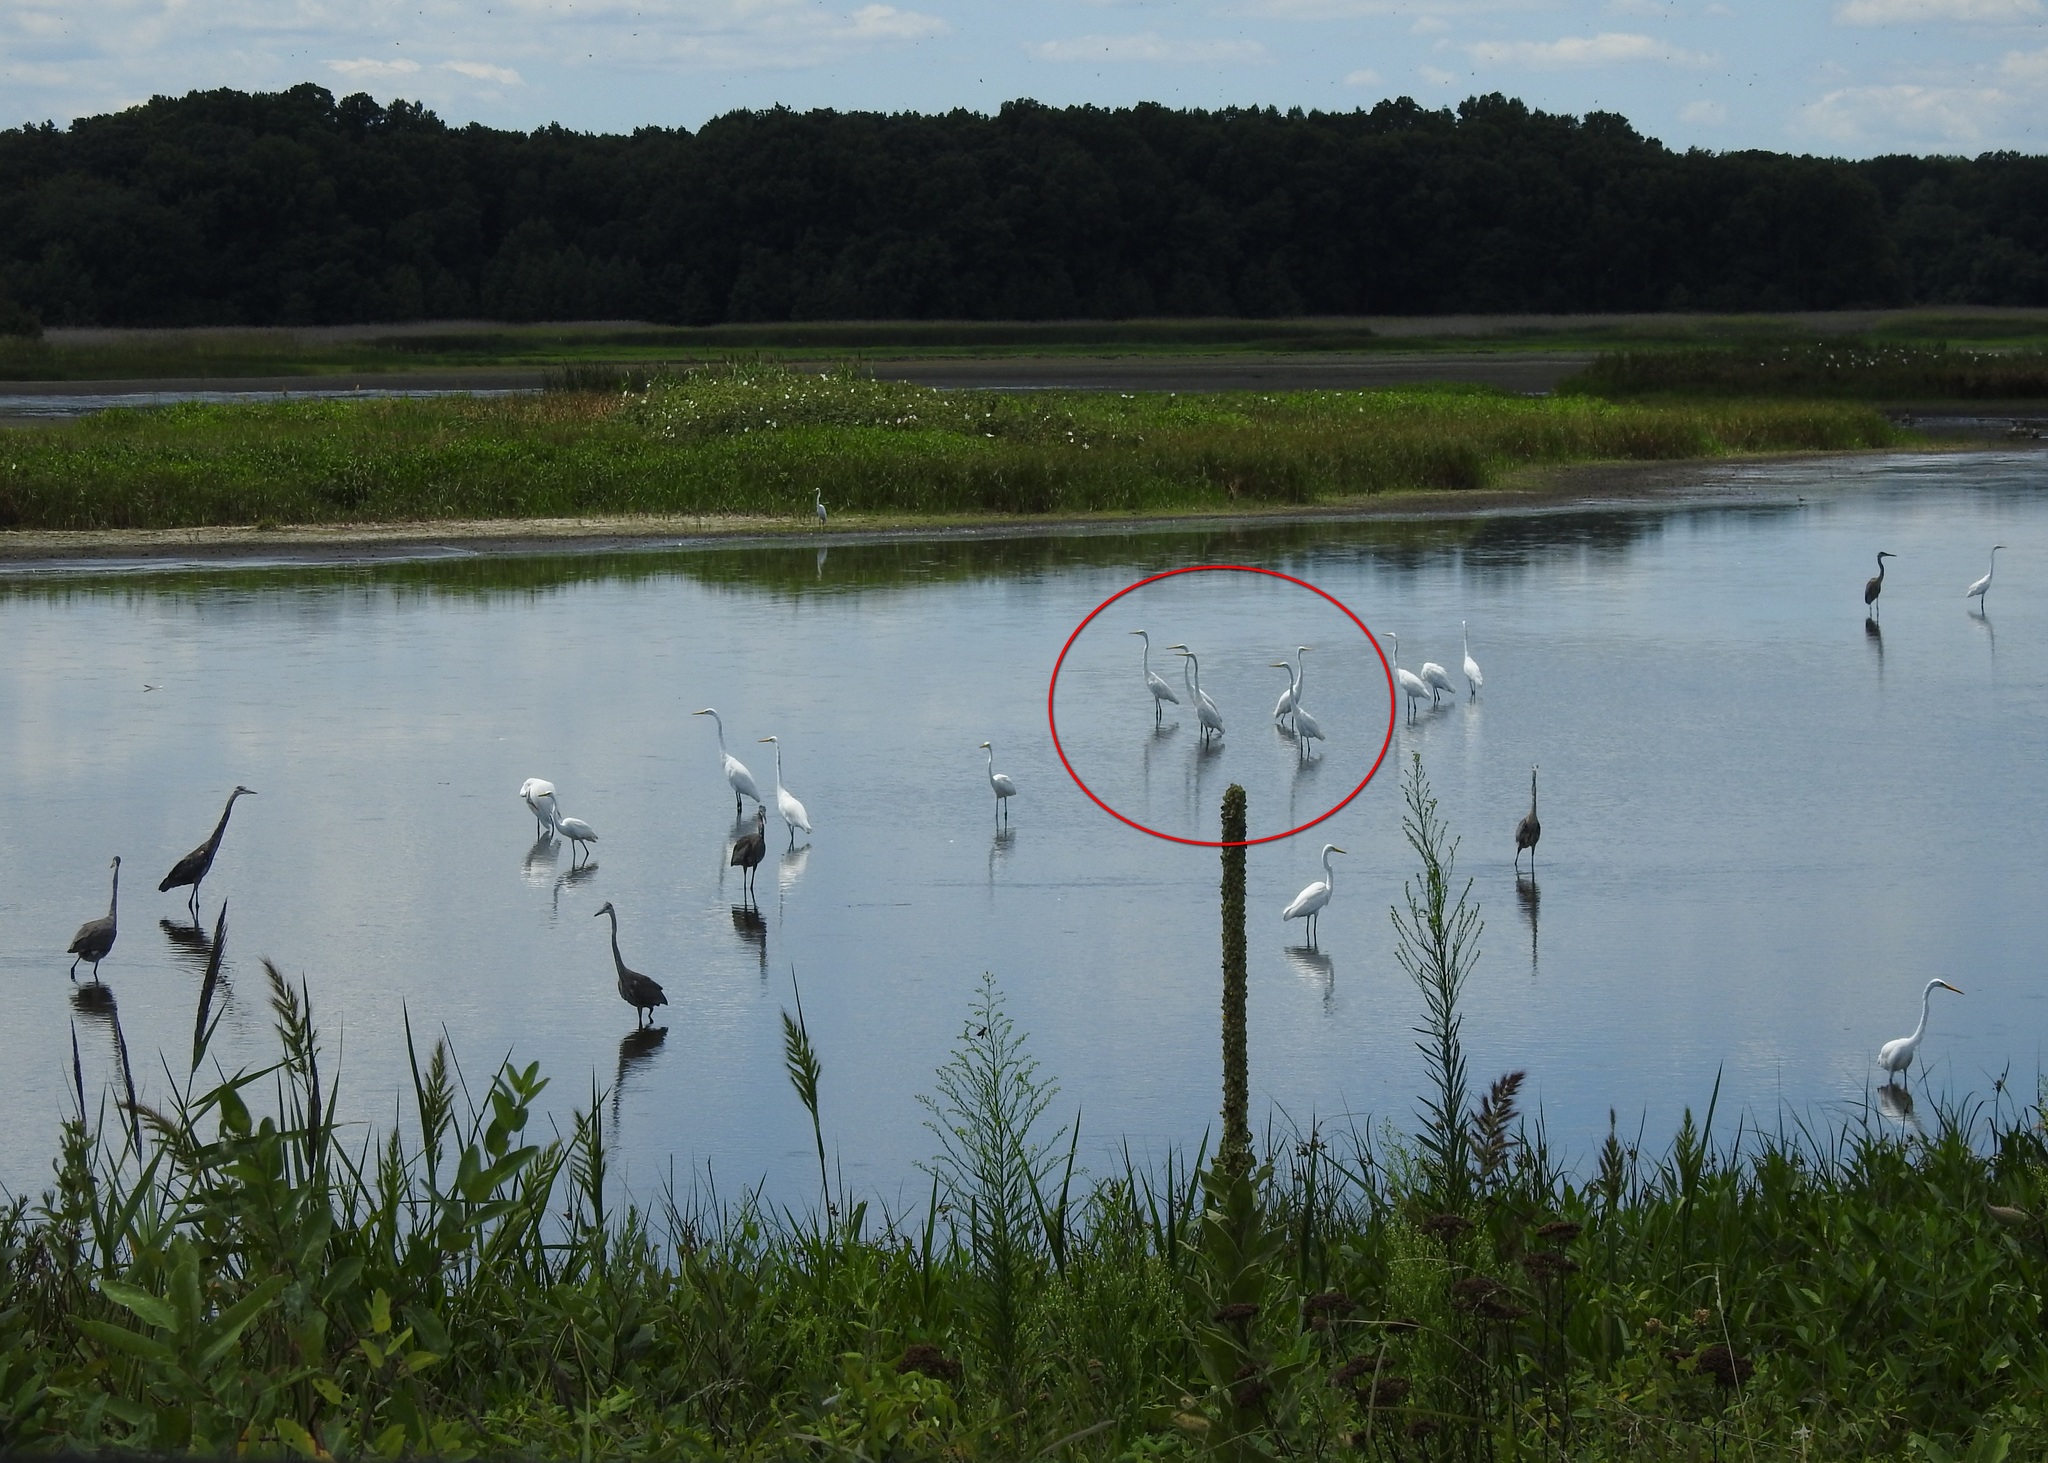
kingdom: Animalia
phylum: Chordata
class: Aves
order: Pelecaniformes
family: Ardeidae
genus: Ardea
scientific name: Ardea alba
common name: Great egret
